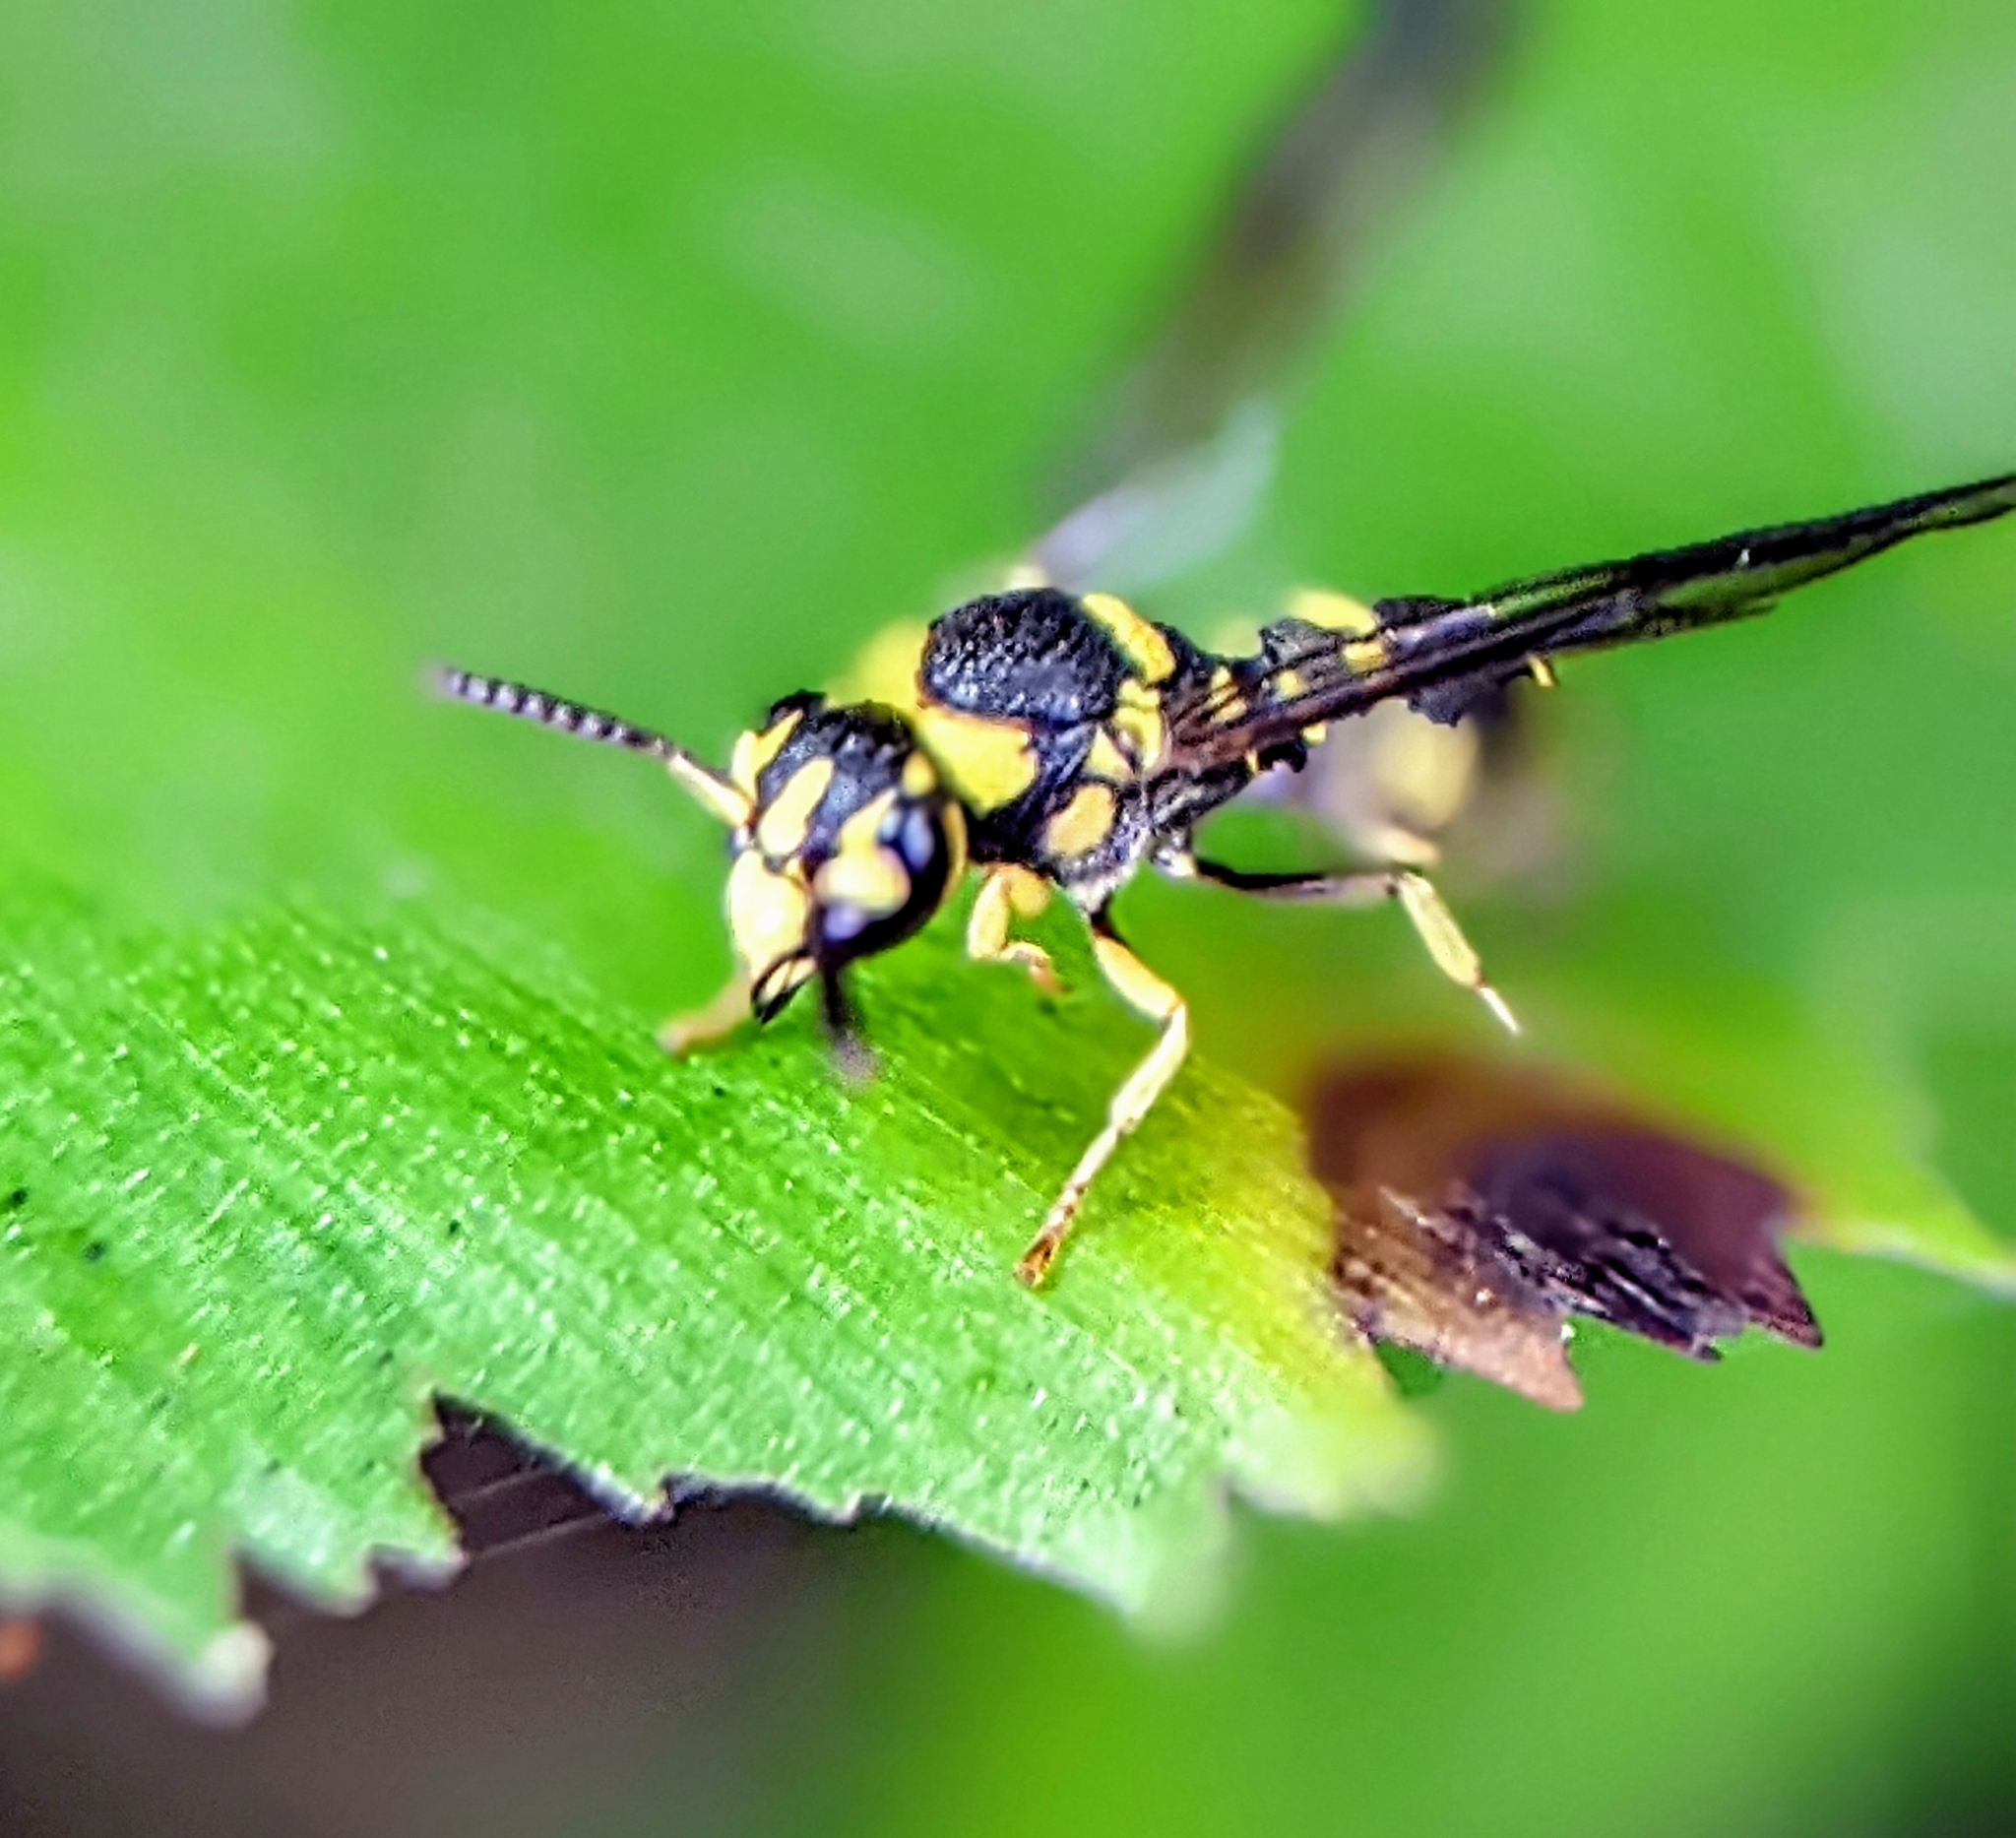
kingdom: Animalia
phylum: Arthropoda
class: Insecta
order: Hymenoptera
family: Eumenidae
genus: Stenodyneriellus
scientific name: Stenodyneriellus guttulatus
